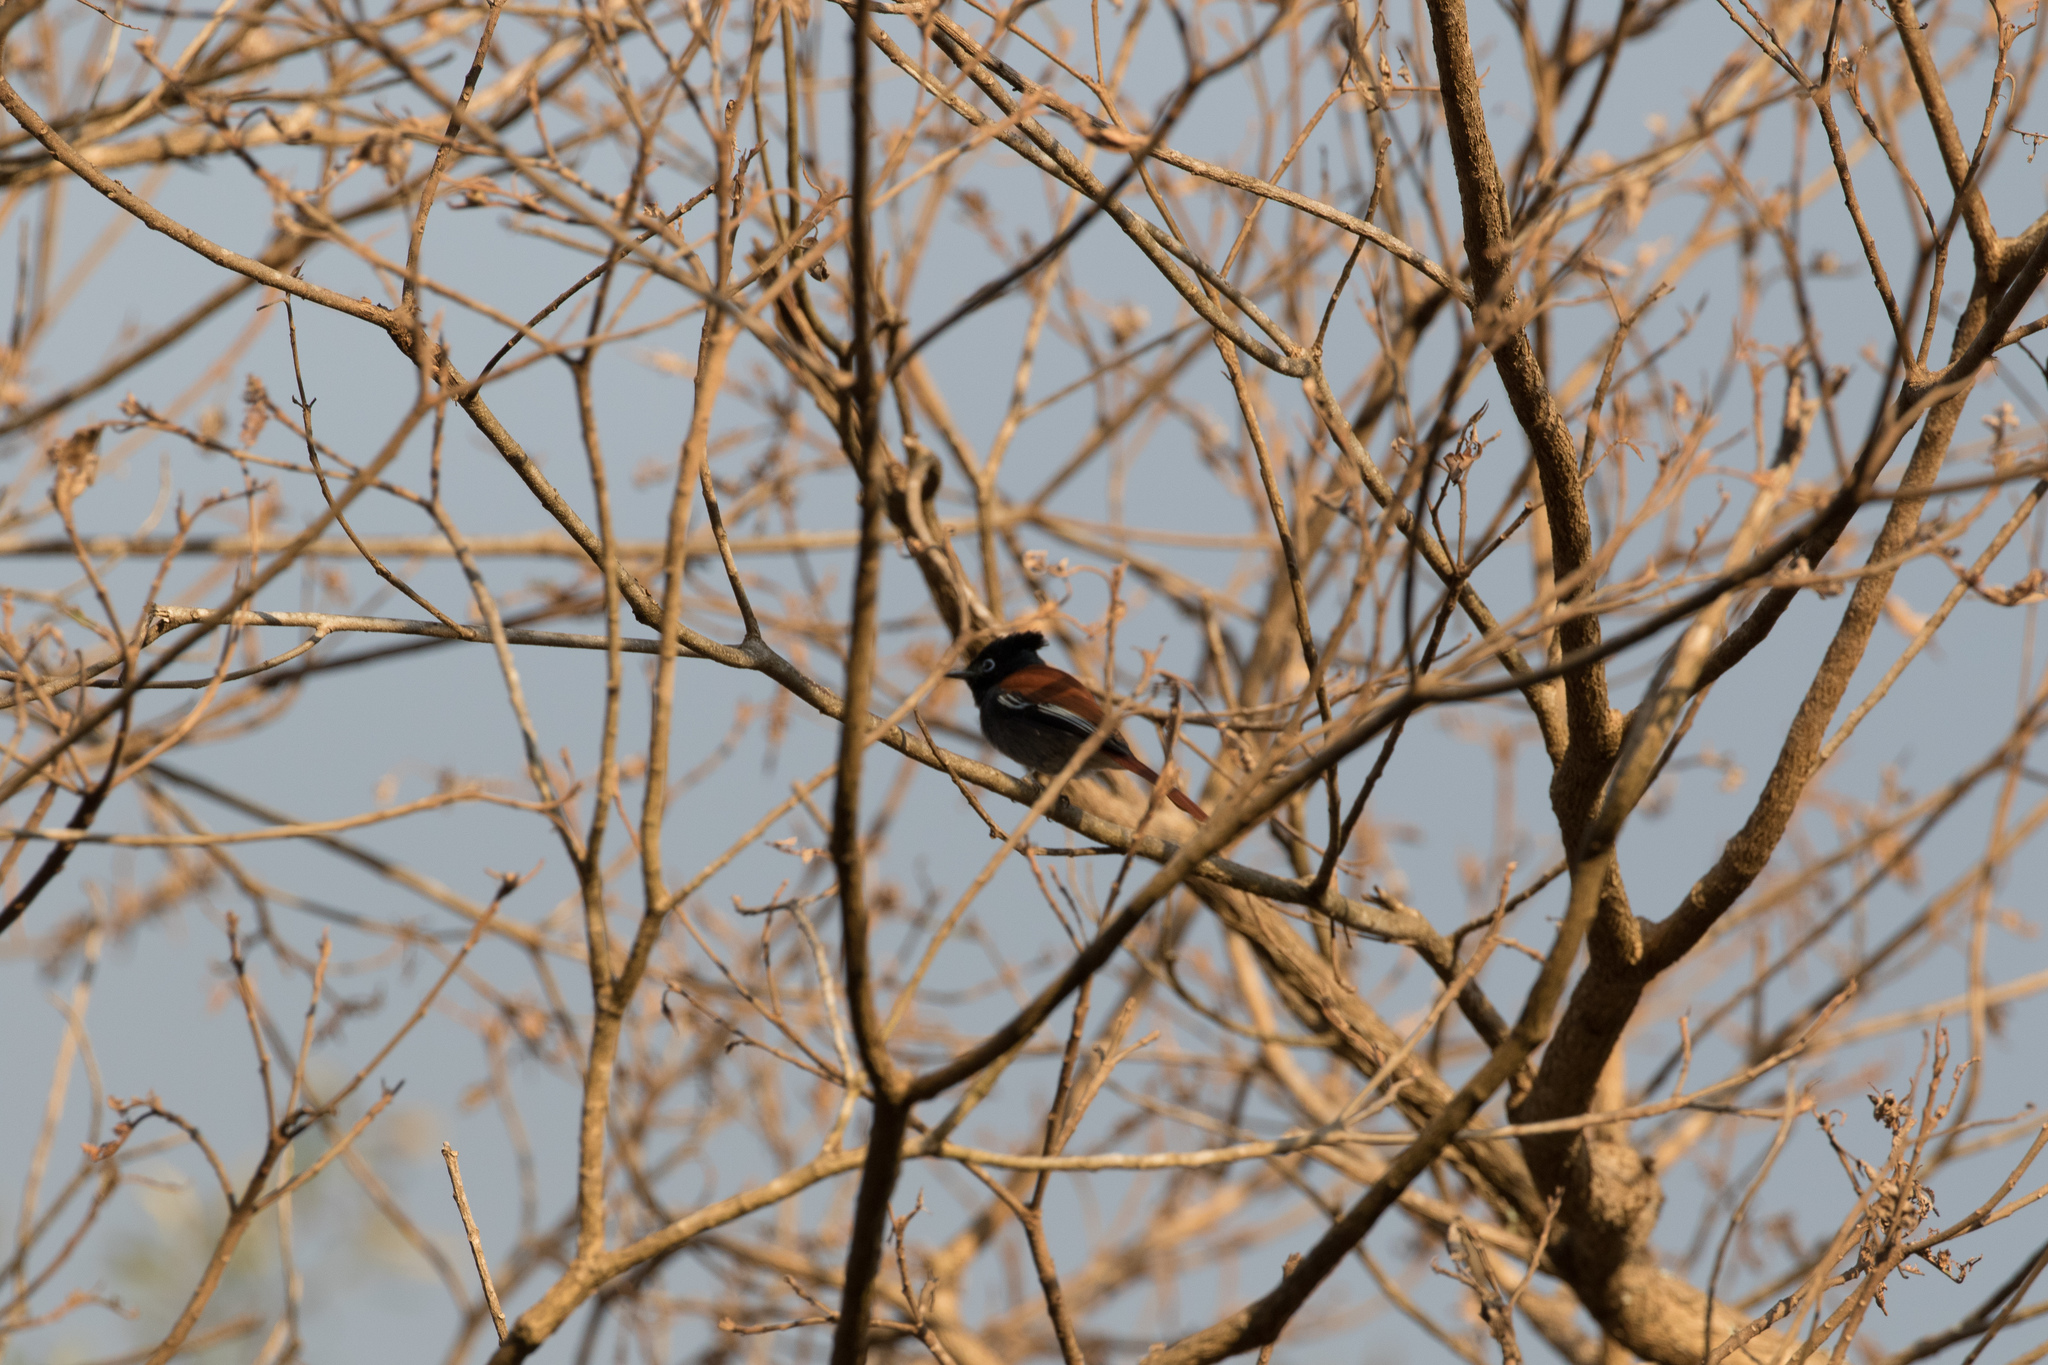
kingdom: Animalia
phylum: Chordata
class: Aves
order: Passeriformes
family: Monarchidae
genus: Terpsiphone
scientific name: Terpsiphone viridis
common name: African paradise flycatcher
